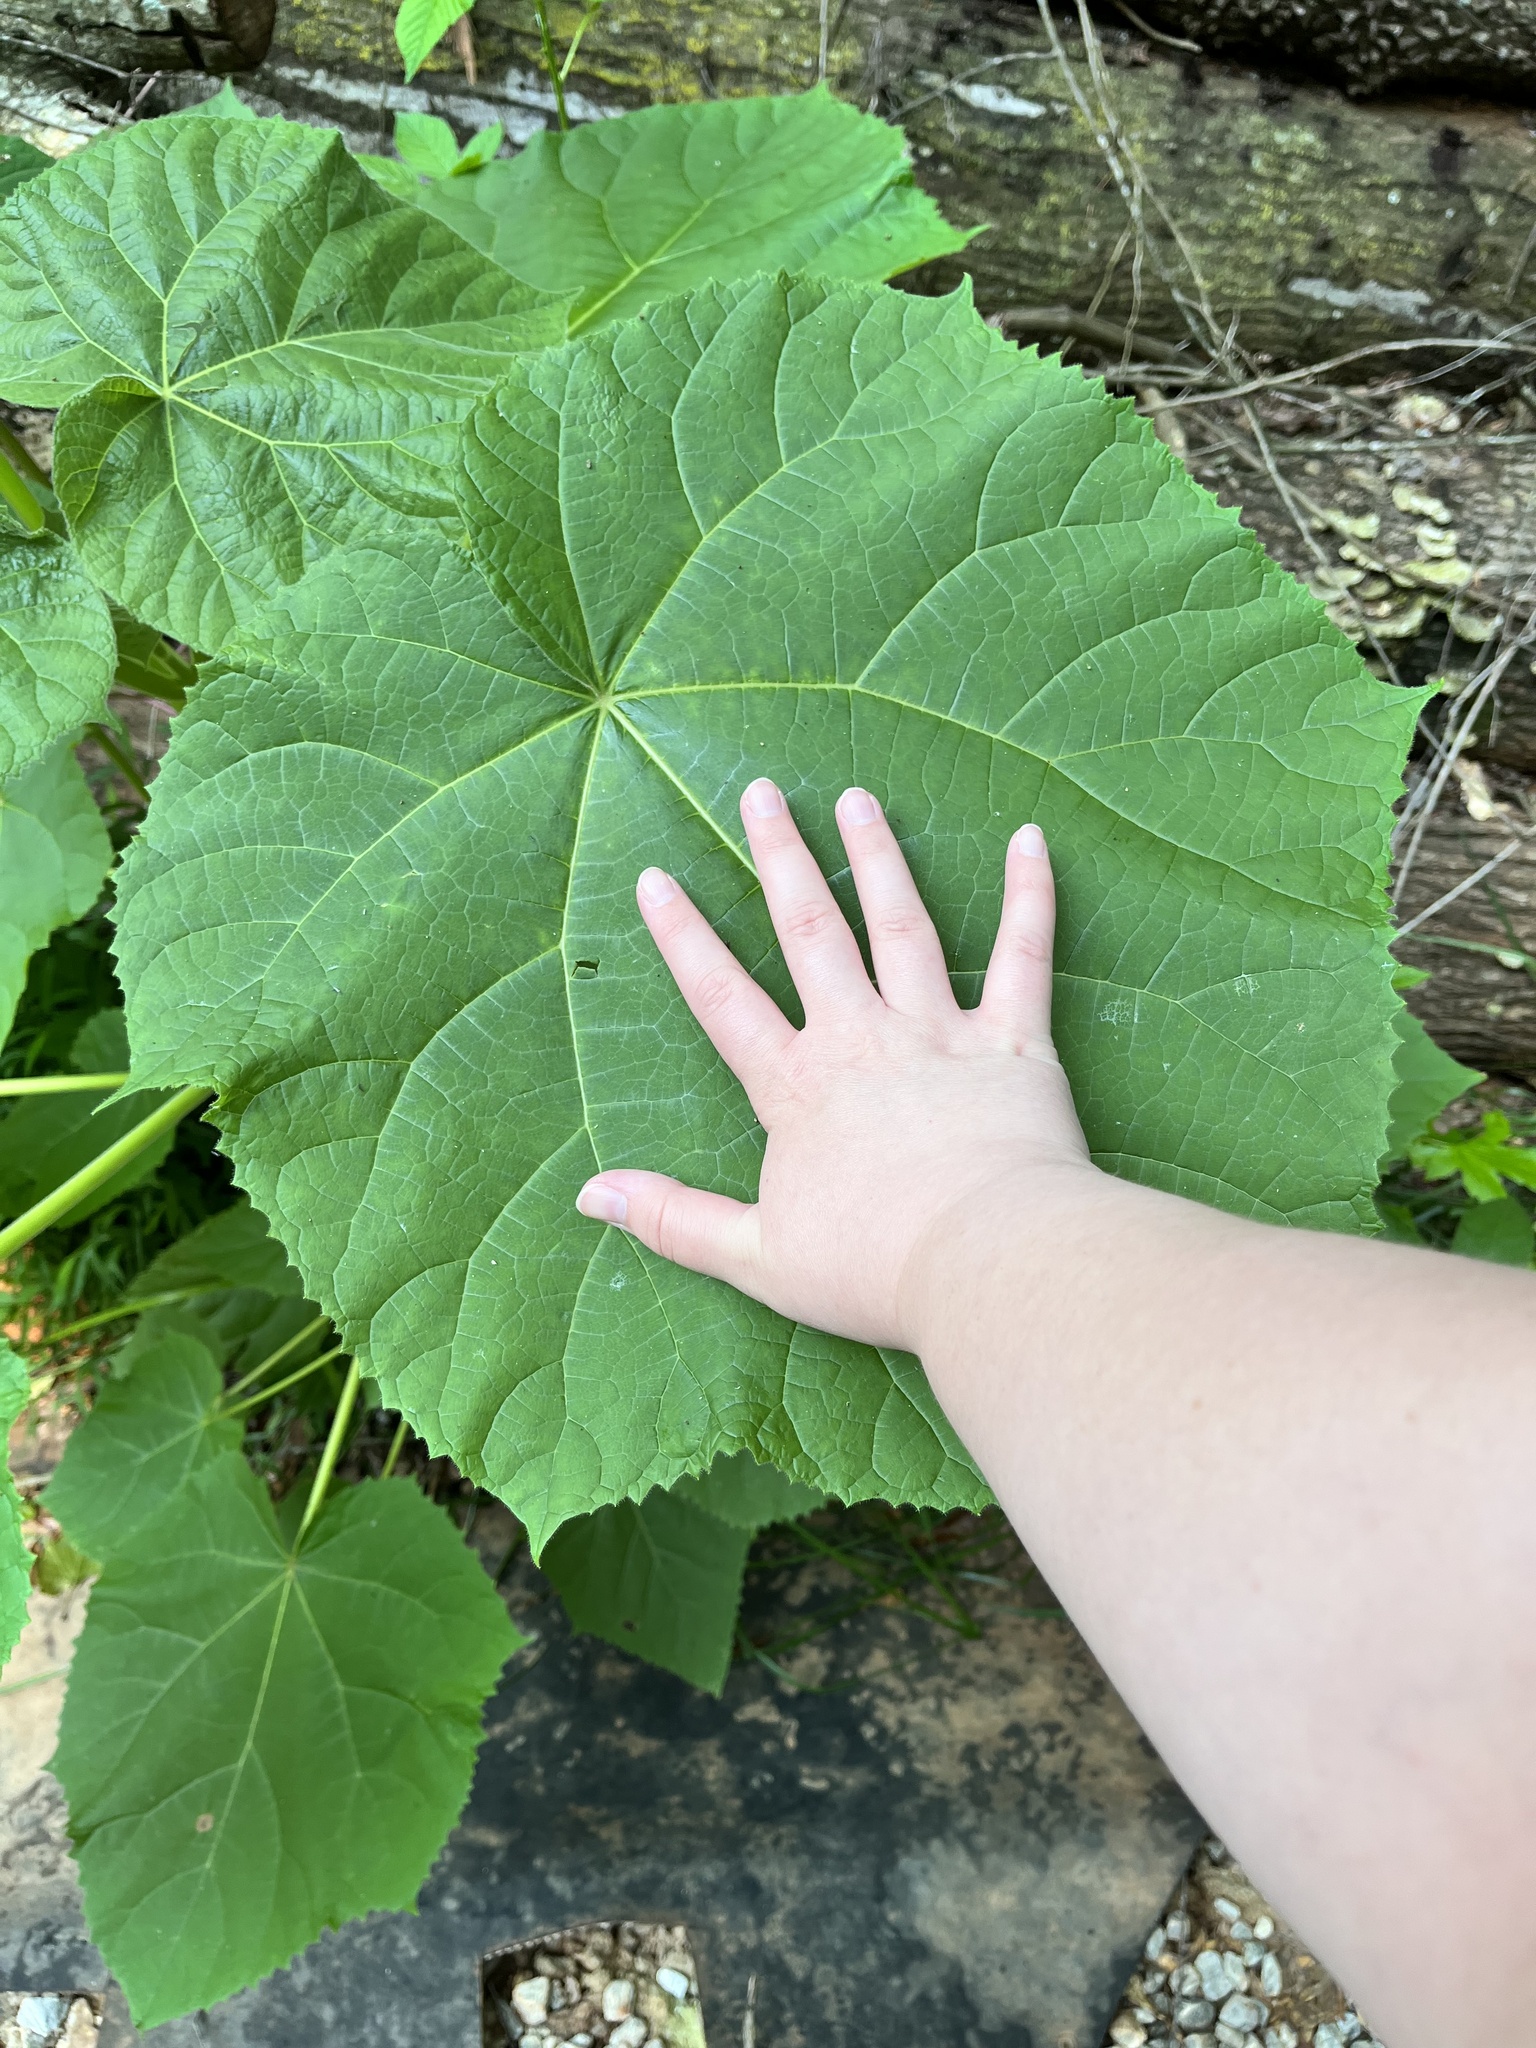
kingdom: Plantae
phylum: Tracheophyta
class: Magnoliopsida
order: Lamiales
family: Paulowniaceae
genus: Paulownia
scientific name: Paulownia tomentosa
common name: Foxglove-tree
